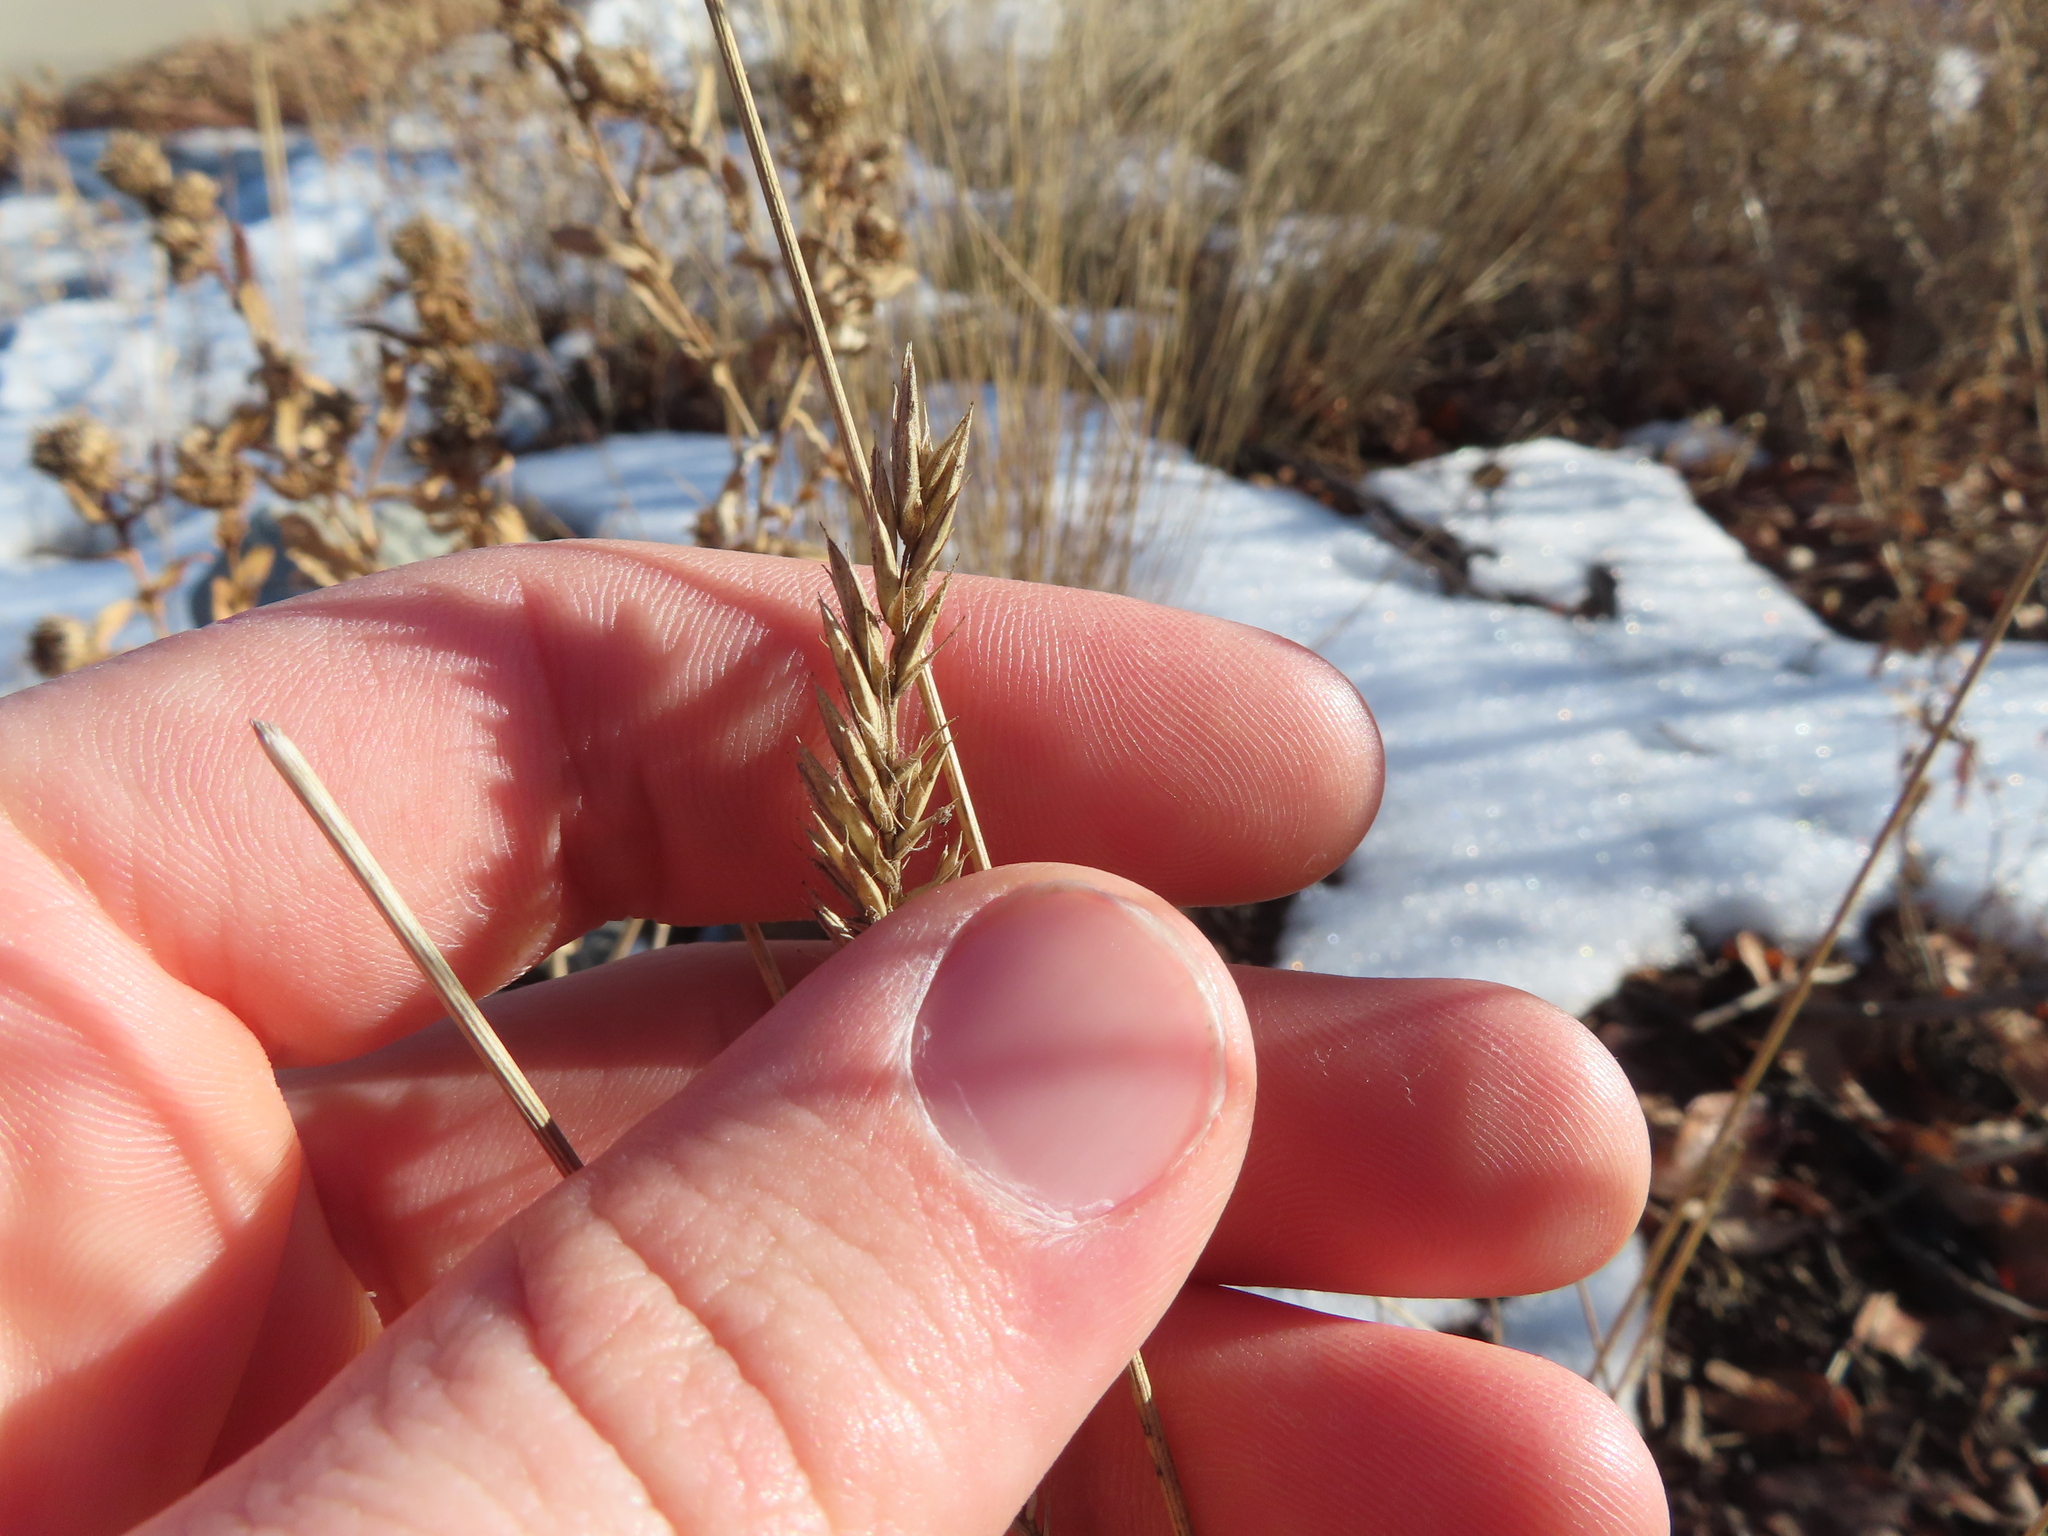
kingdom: Plantae
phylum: Tracheophyta
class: Liliopsida
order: Poales
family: Poaceae
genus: Agropyron
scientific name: Agropyron cristatum
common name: Crested wheatgrass
